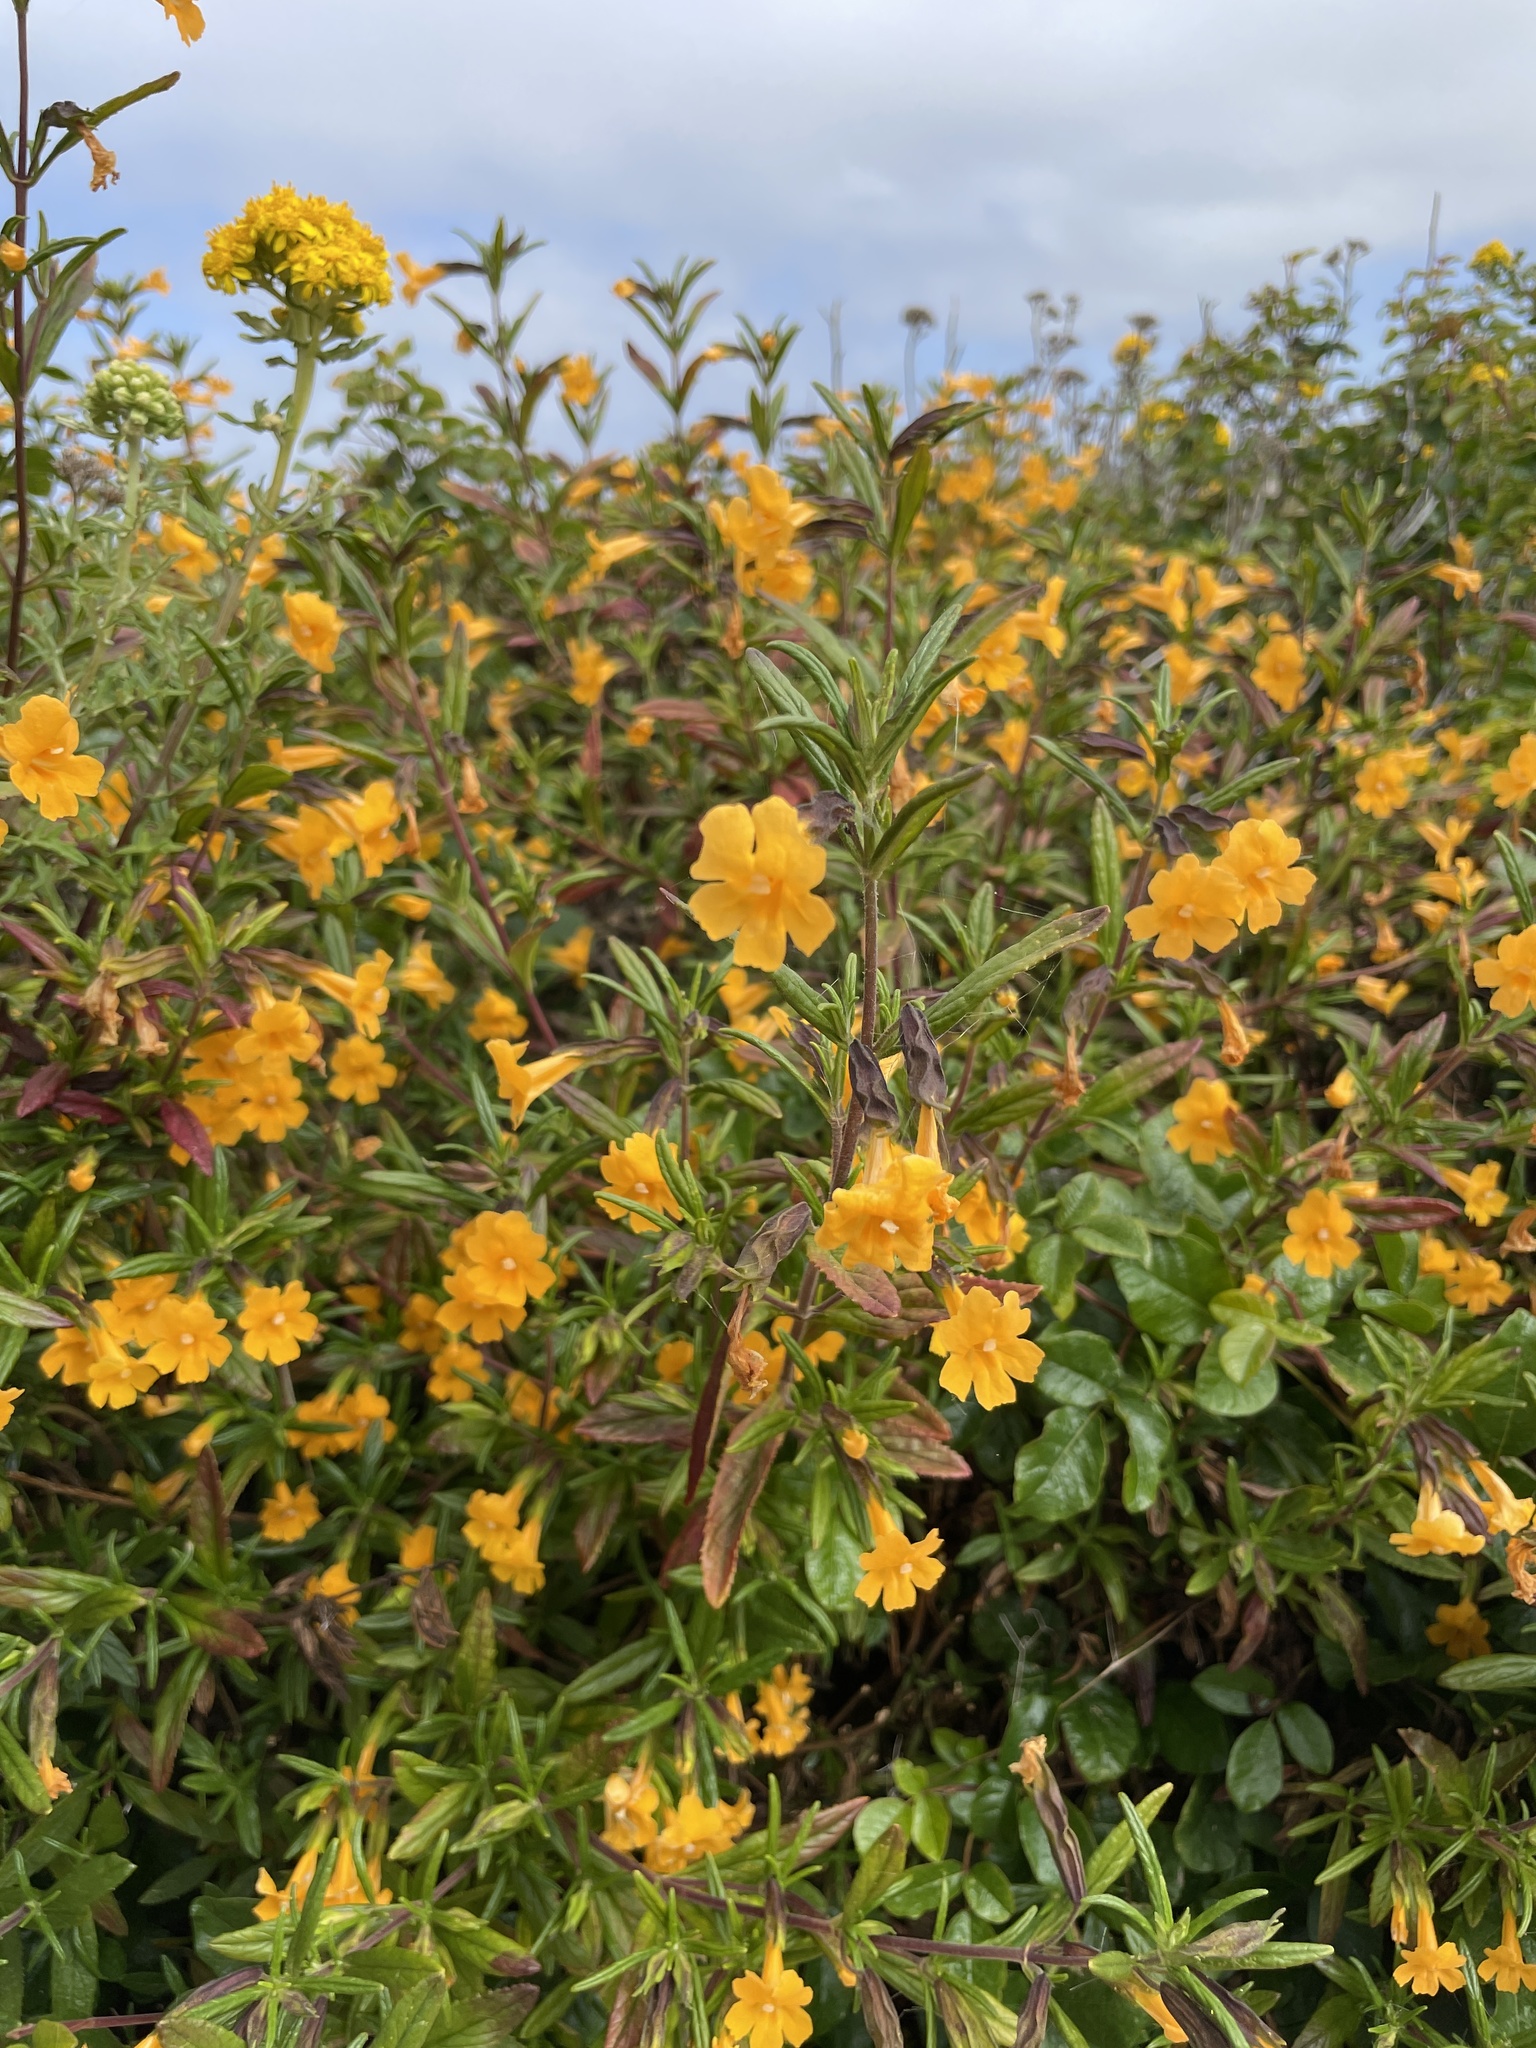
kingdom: Plantae
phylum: Tracheophyta
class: Magnoliopsida
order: Lamiales
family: Phrymaceae
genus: Diplacus
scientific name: Diplacus aurantiacus
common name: Bush monkey-flower
